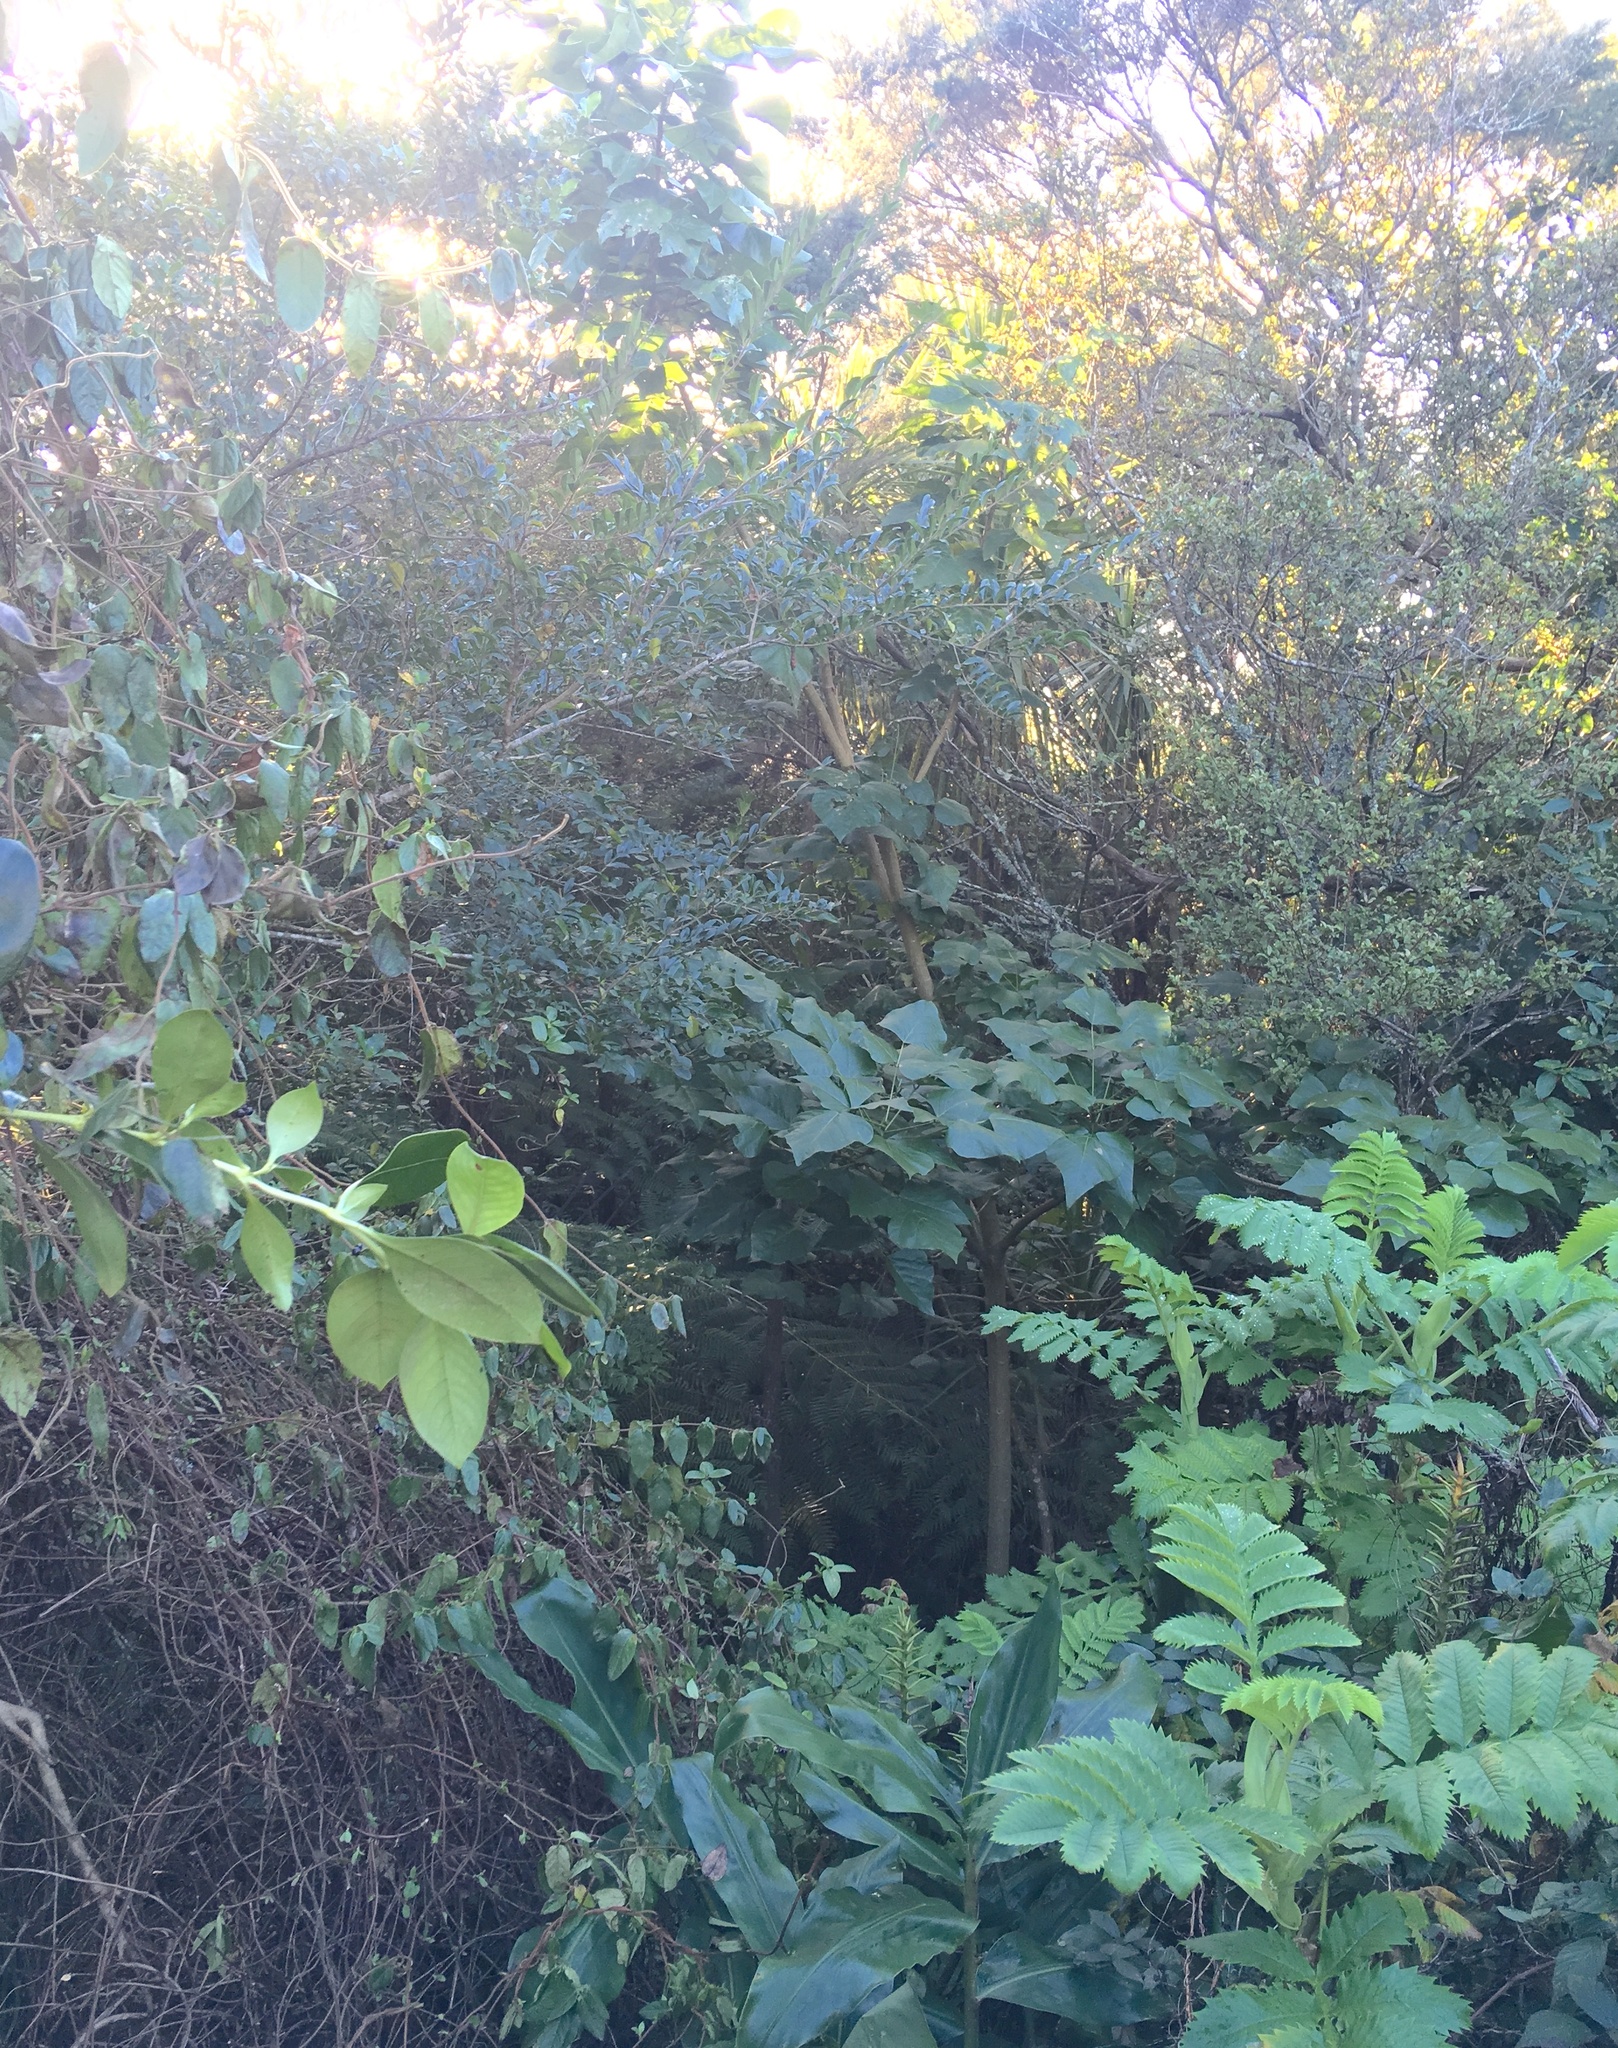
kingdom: Plantae
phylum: Tracheophyta
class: Magnoliopsida
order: Geraniales
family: Melianthaceae
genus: Melianthus
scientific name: Melianthus major
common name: Honey-flower
